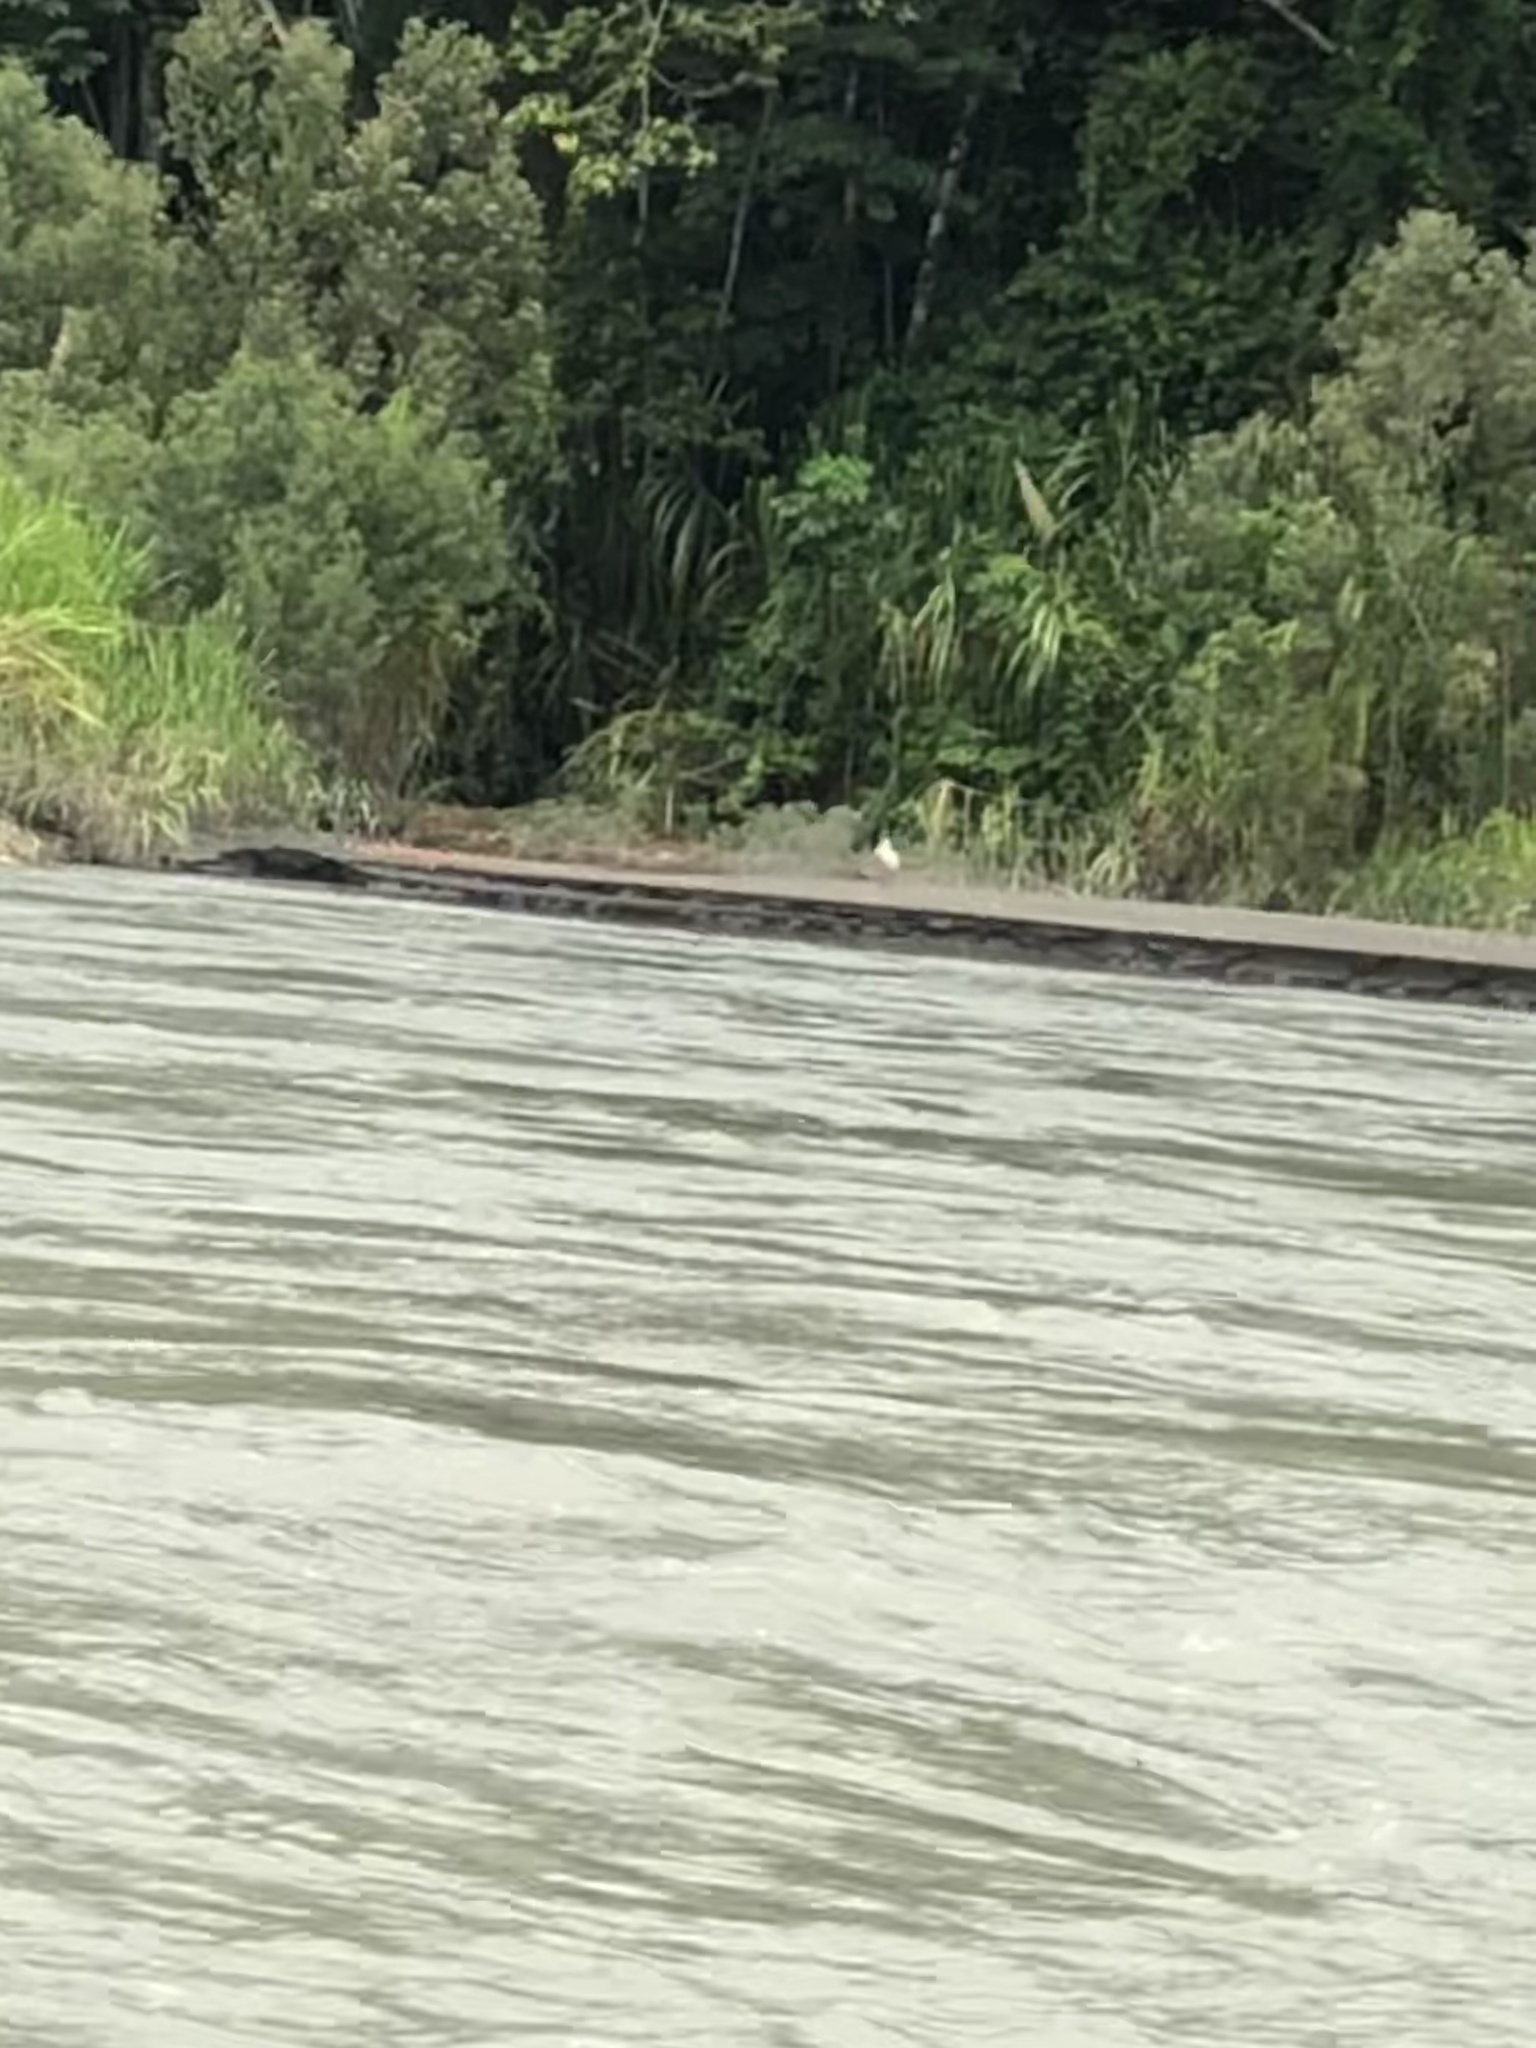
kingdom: Animalia
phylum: Chordata
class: Aves
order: Pelecaniformes
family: Threskiornithidae
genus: Platalea
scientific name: Platalea ajaja
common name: Roseate spoonbill
